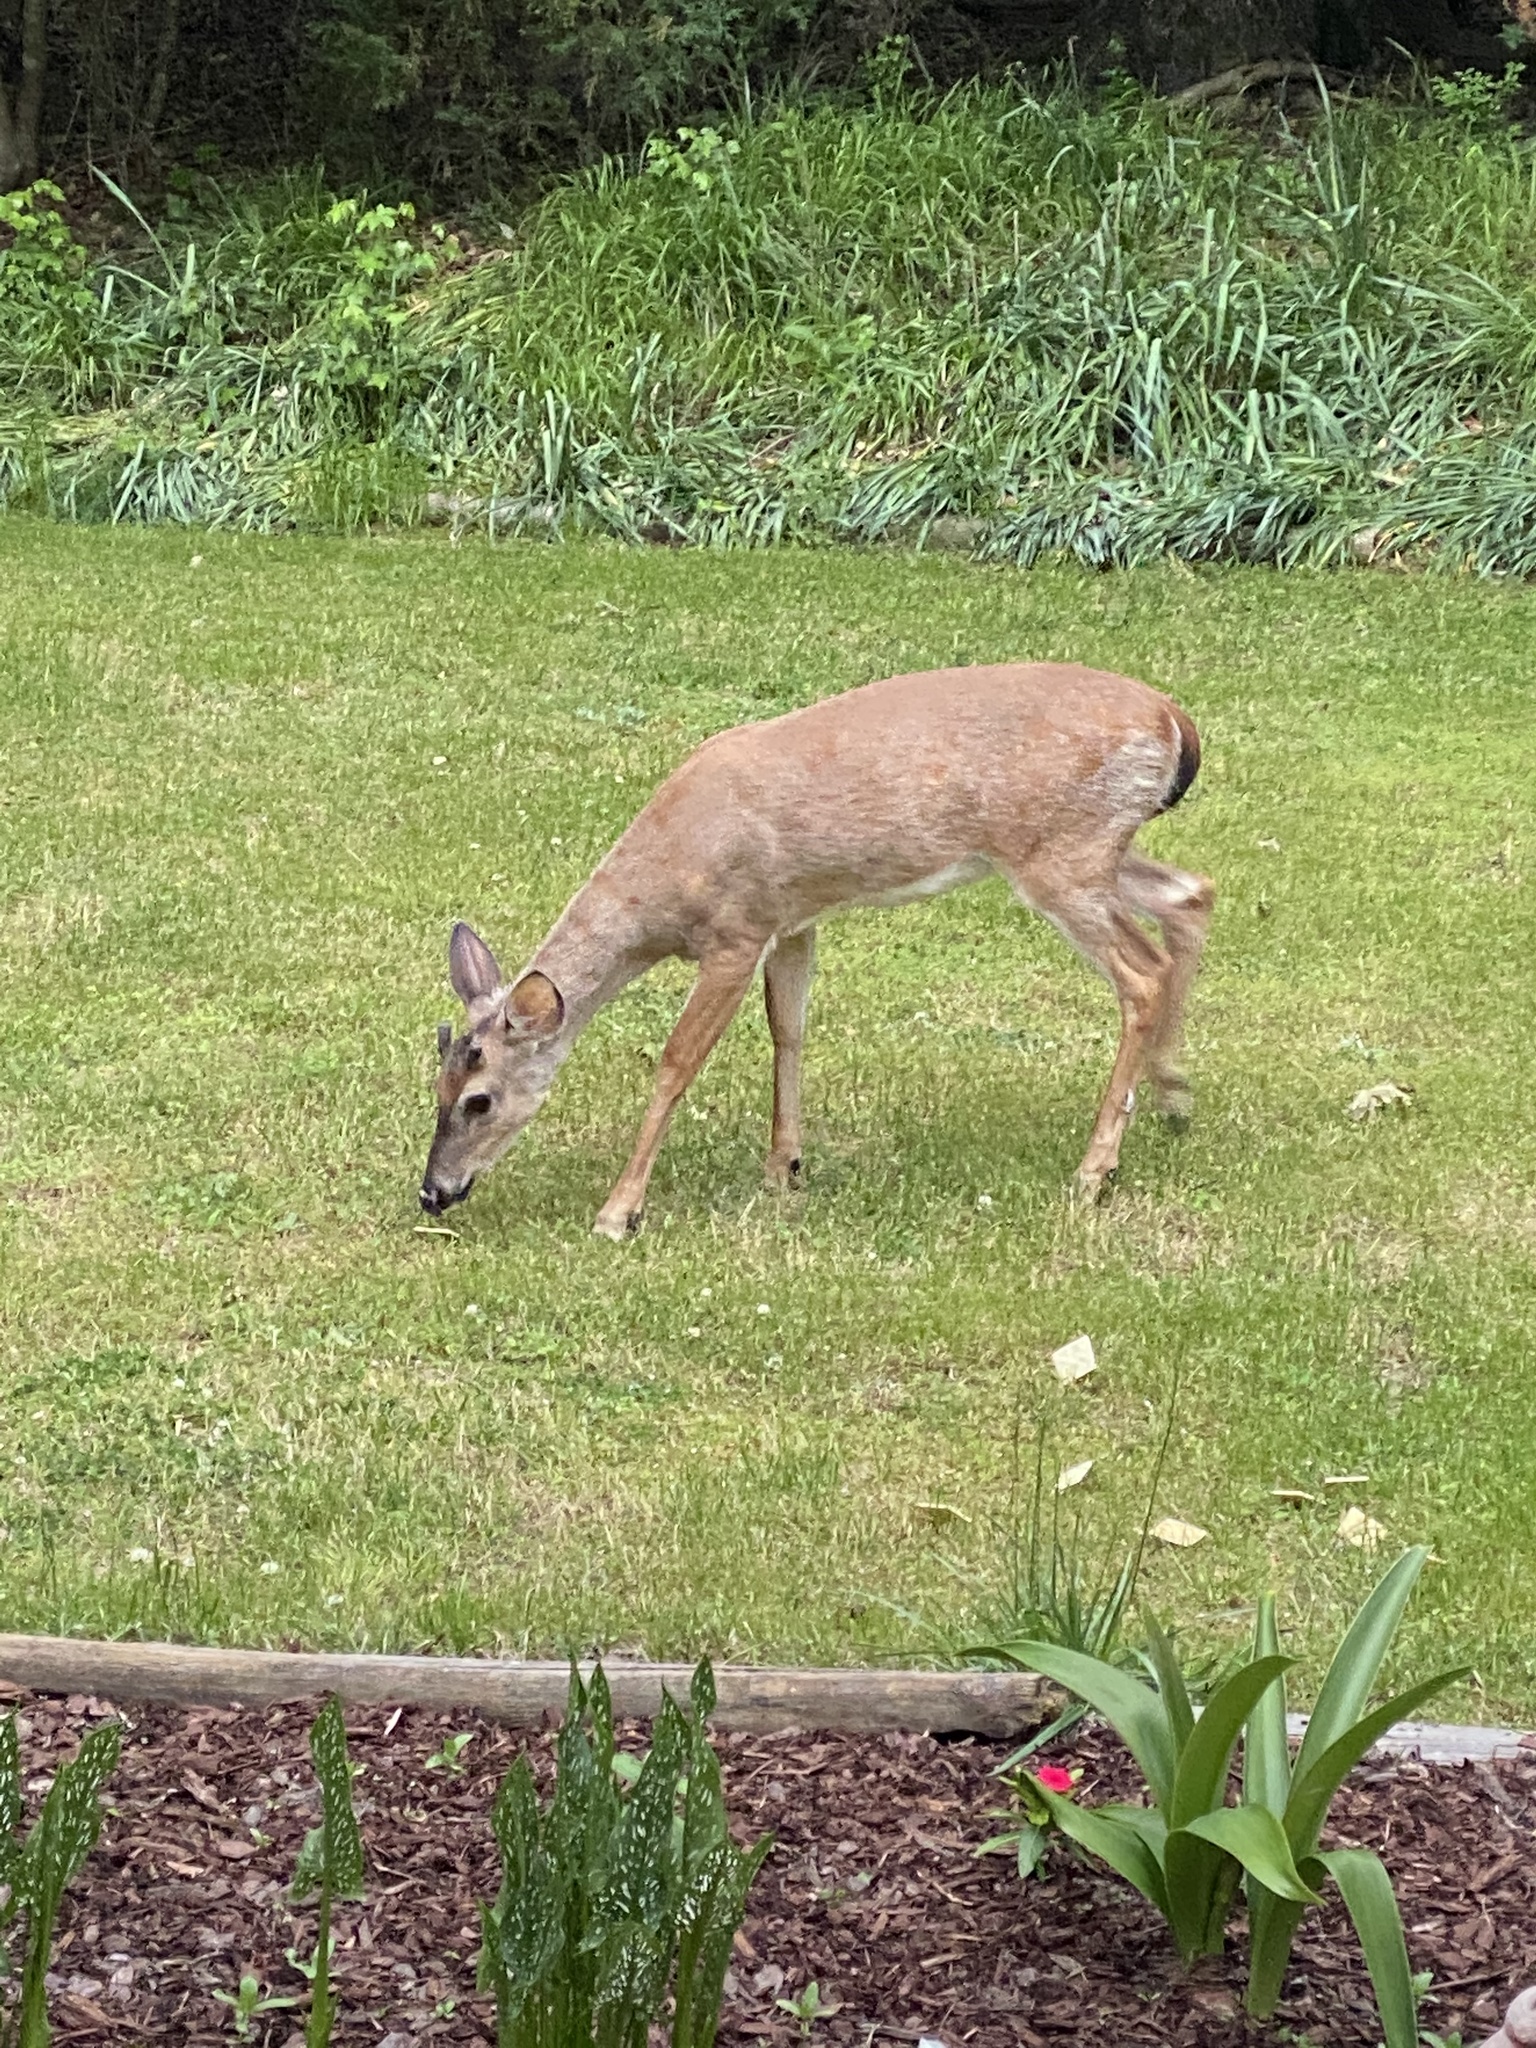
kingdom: Animalia
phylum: Chordata
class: Mammalia
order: Artiodactyla
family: Cervidae
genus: Odocoileus
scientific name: Odocoileus virginianus
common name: White-tailed deer
